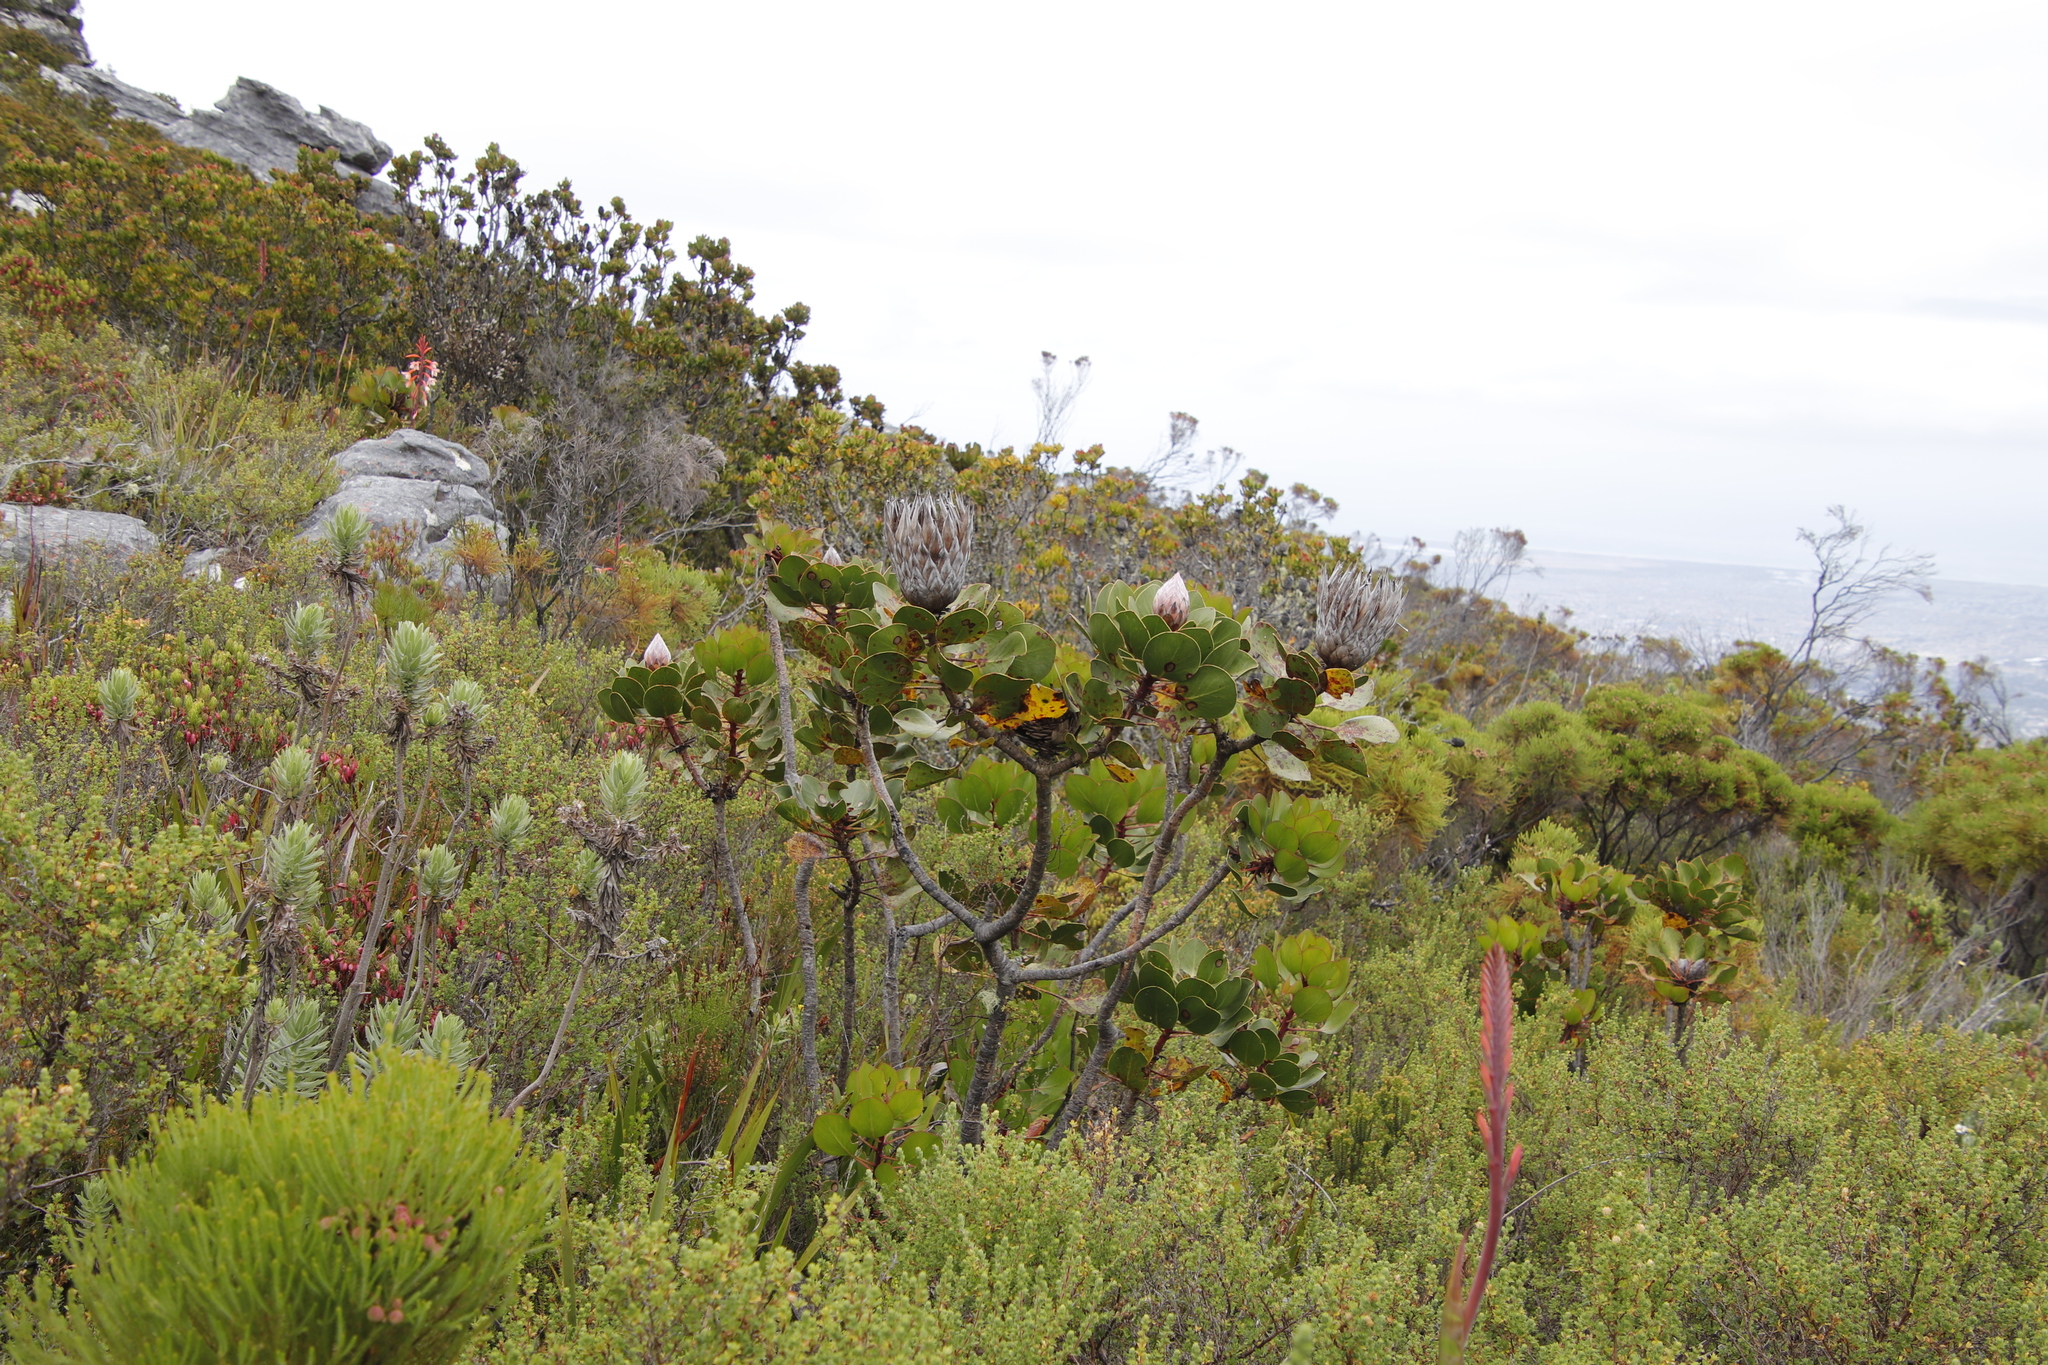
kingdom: Plantae
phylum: Tracheophyta
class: Magnoliopsida
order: Proteales
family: Proteaceae
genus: Protea
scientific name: Protea cynaroides
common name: King protea
